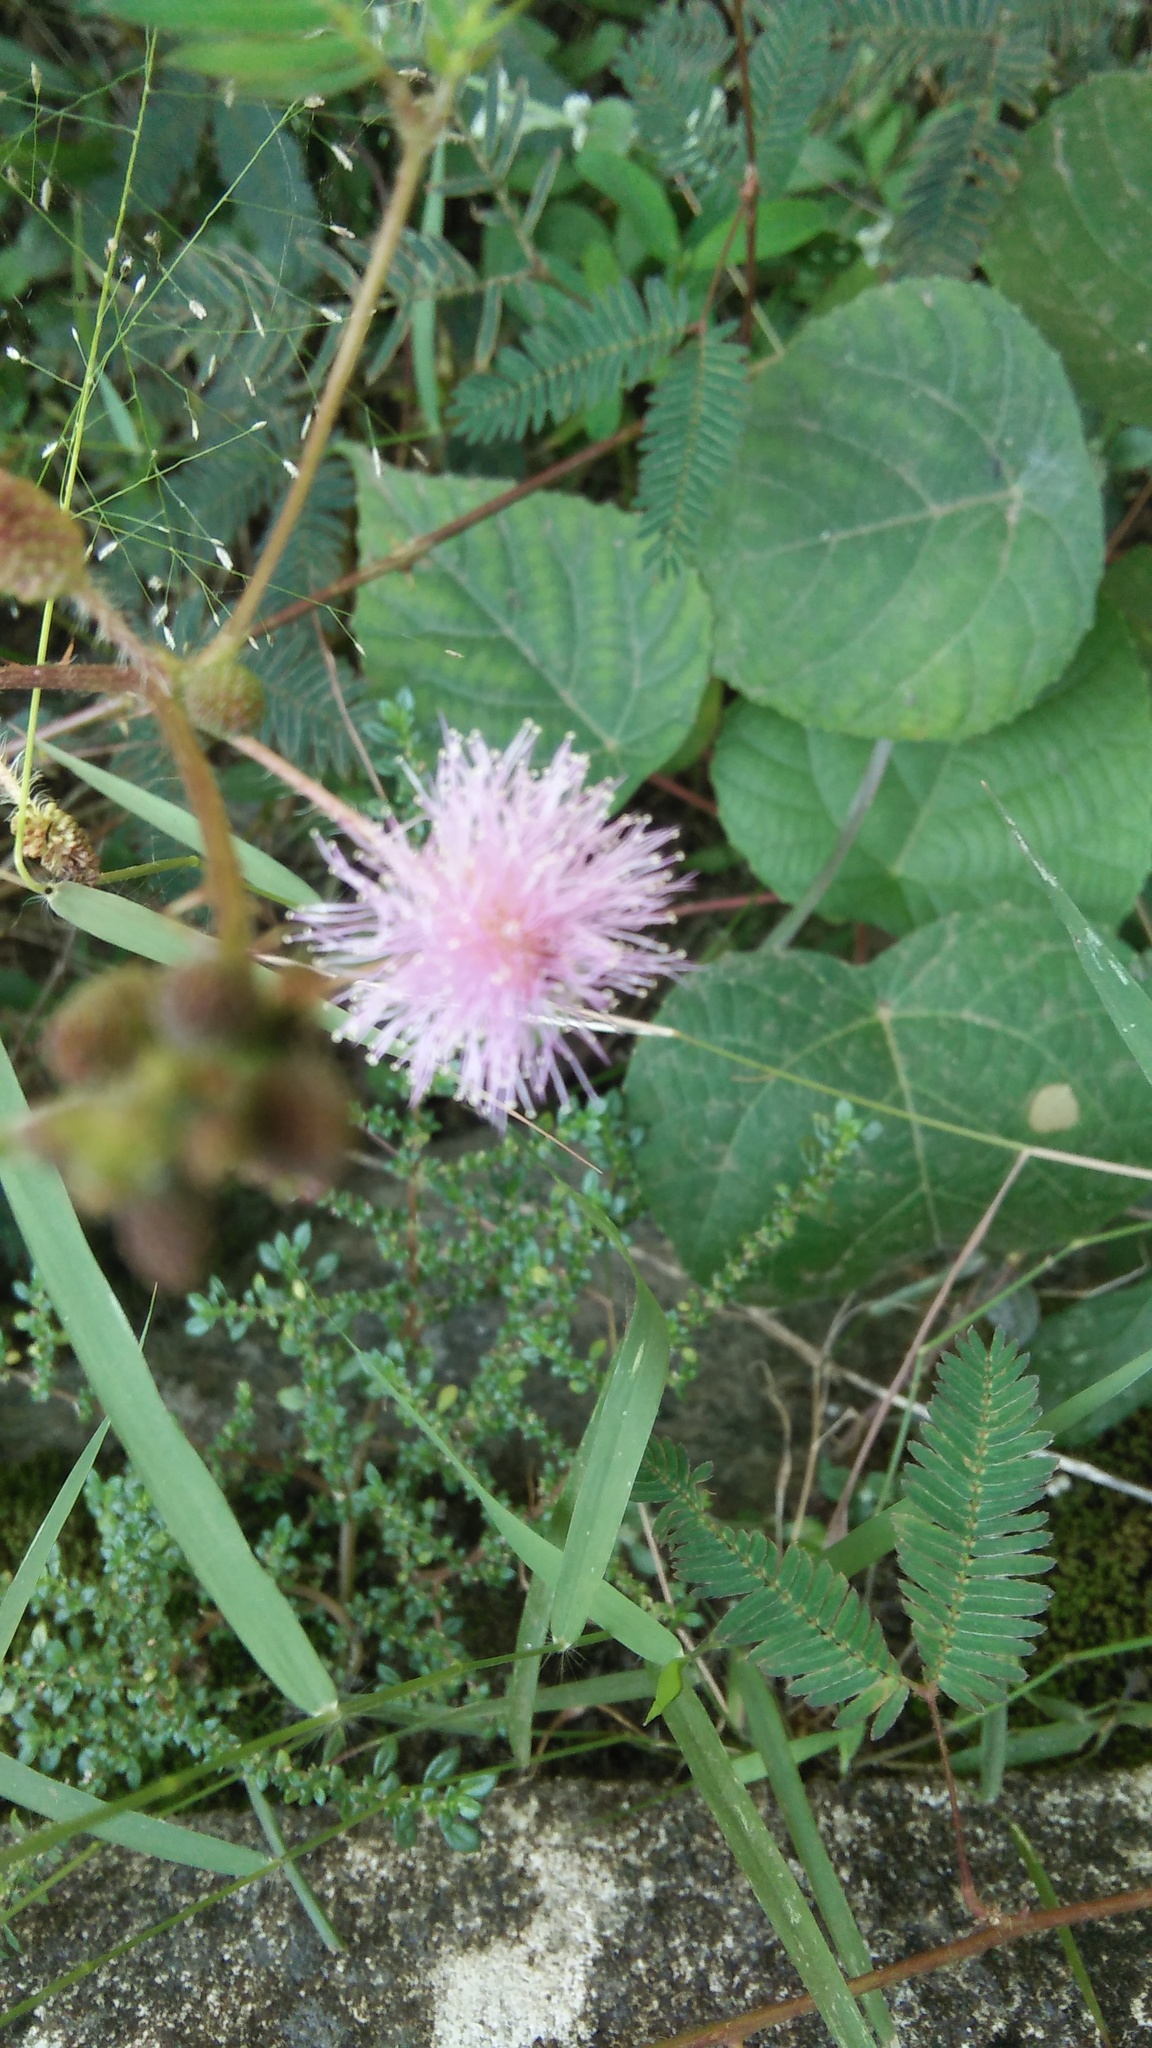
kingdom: Plantae
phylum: Tracheophyta
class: Magnoliopsida
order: Fabales
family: Fabaceae
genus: Mimosa
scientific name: Mimosa pudica
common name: Sensitive plant
